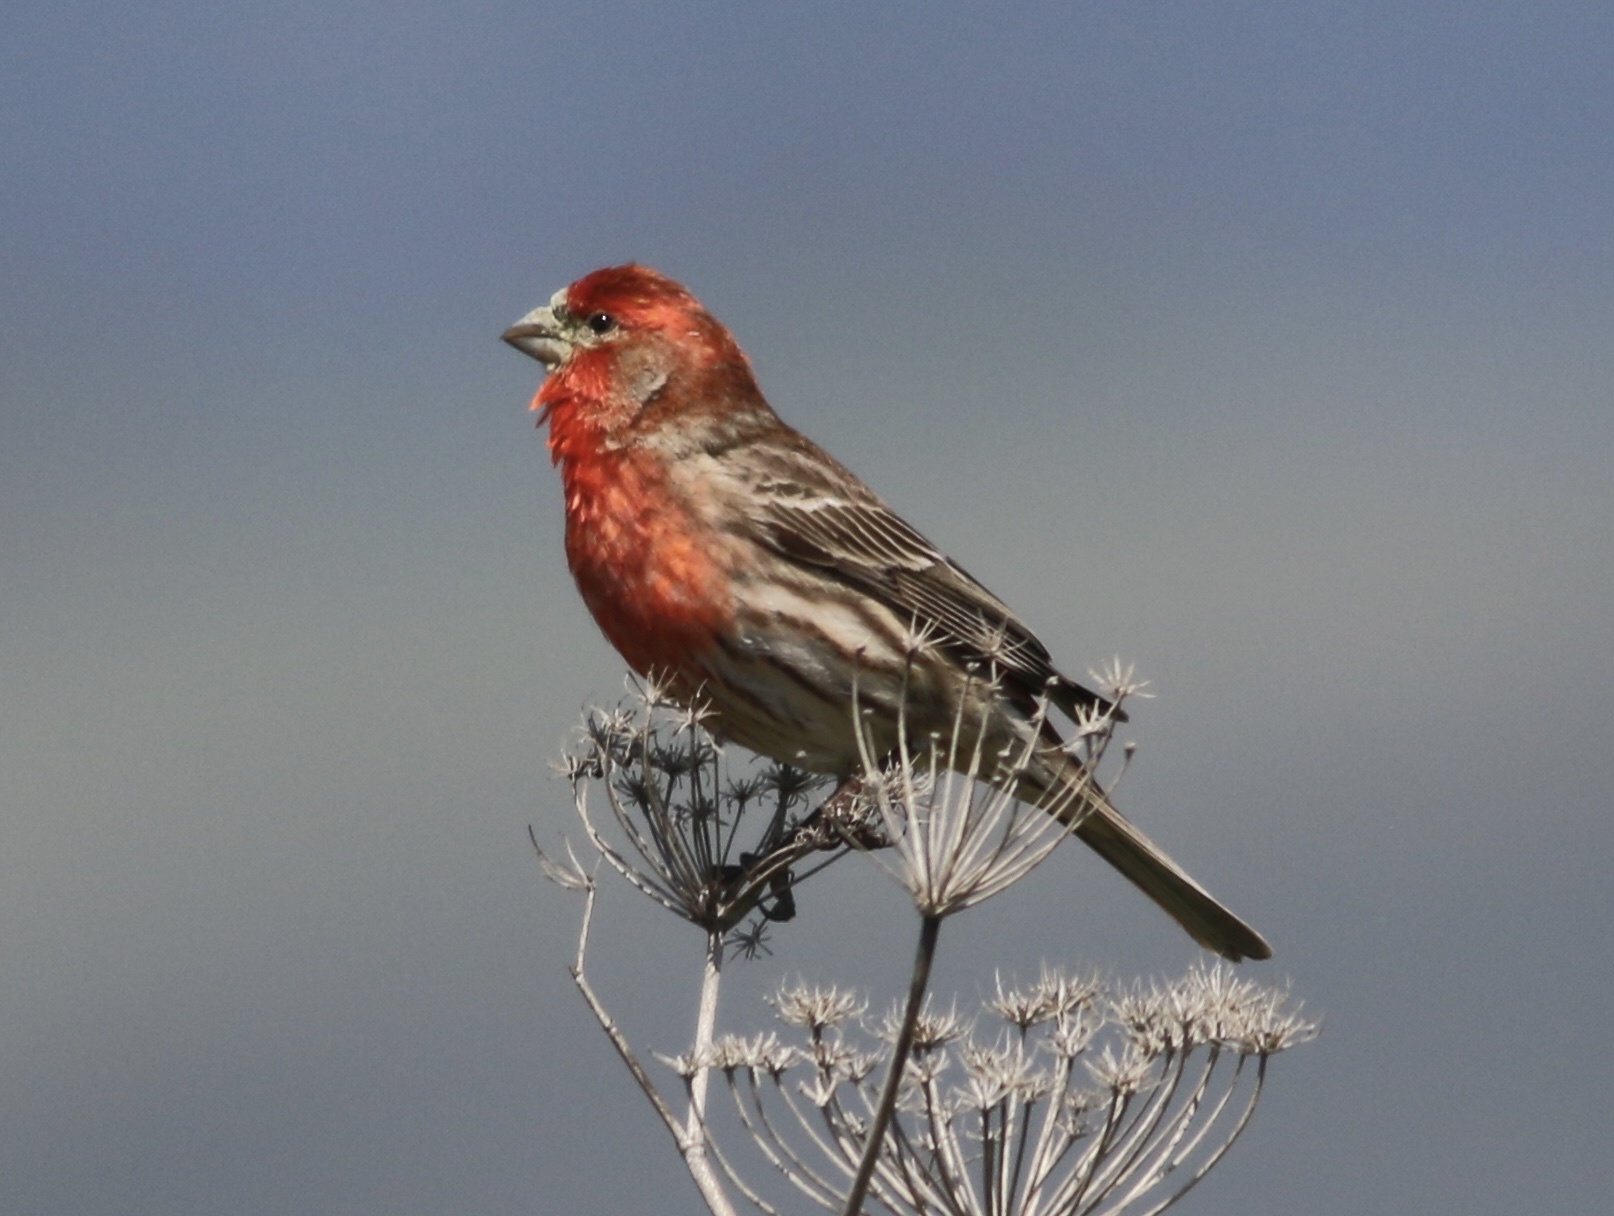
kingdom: Animalia
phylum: Chordata
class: Aves
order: Passeriformes
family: Fringillidae
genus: Haemorhous
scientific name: Haemorhous mexicanus
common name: House finch
